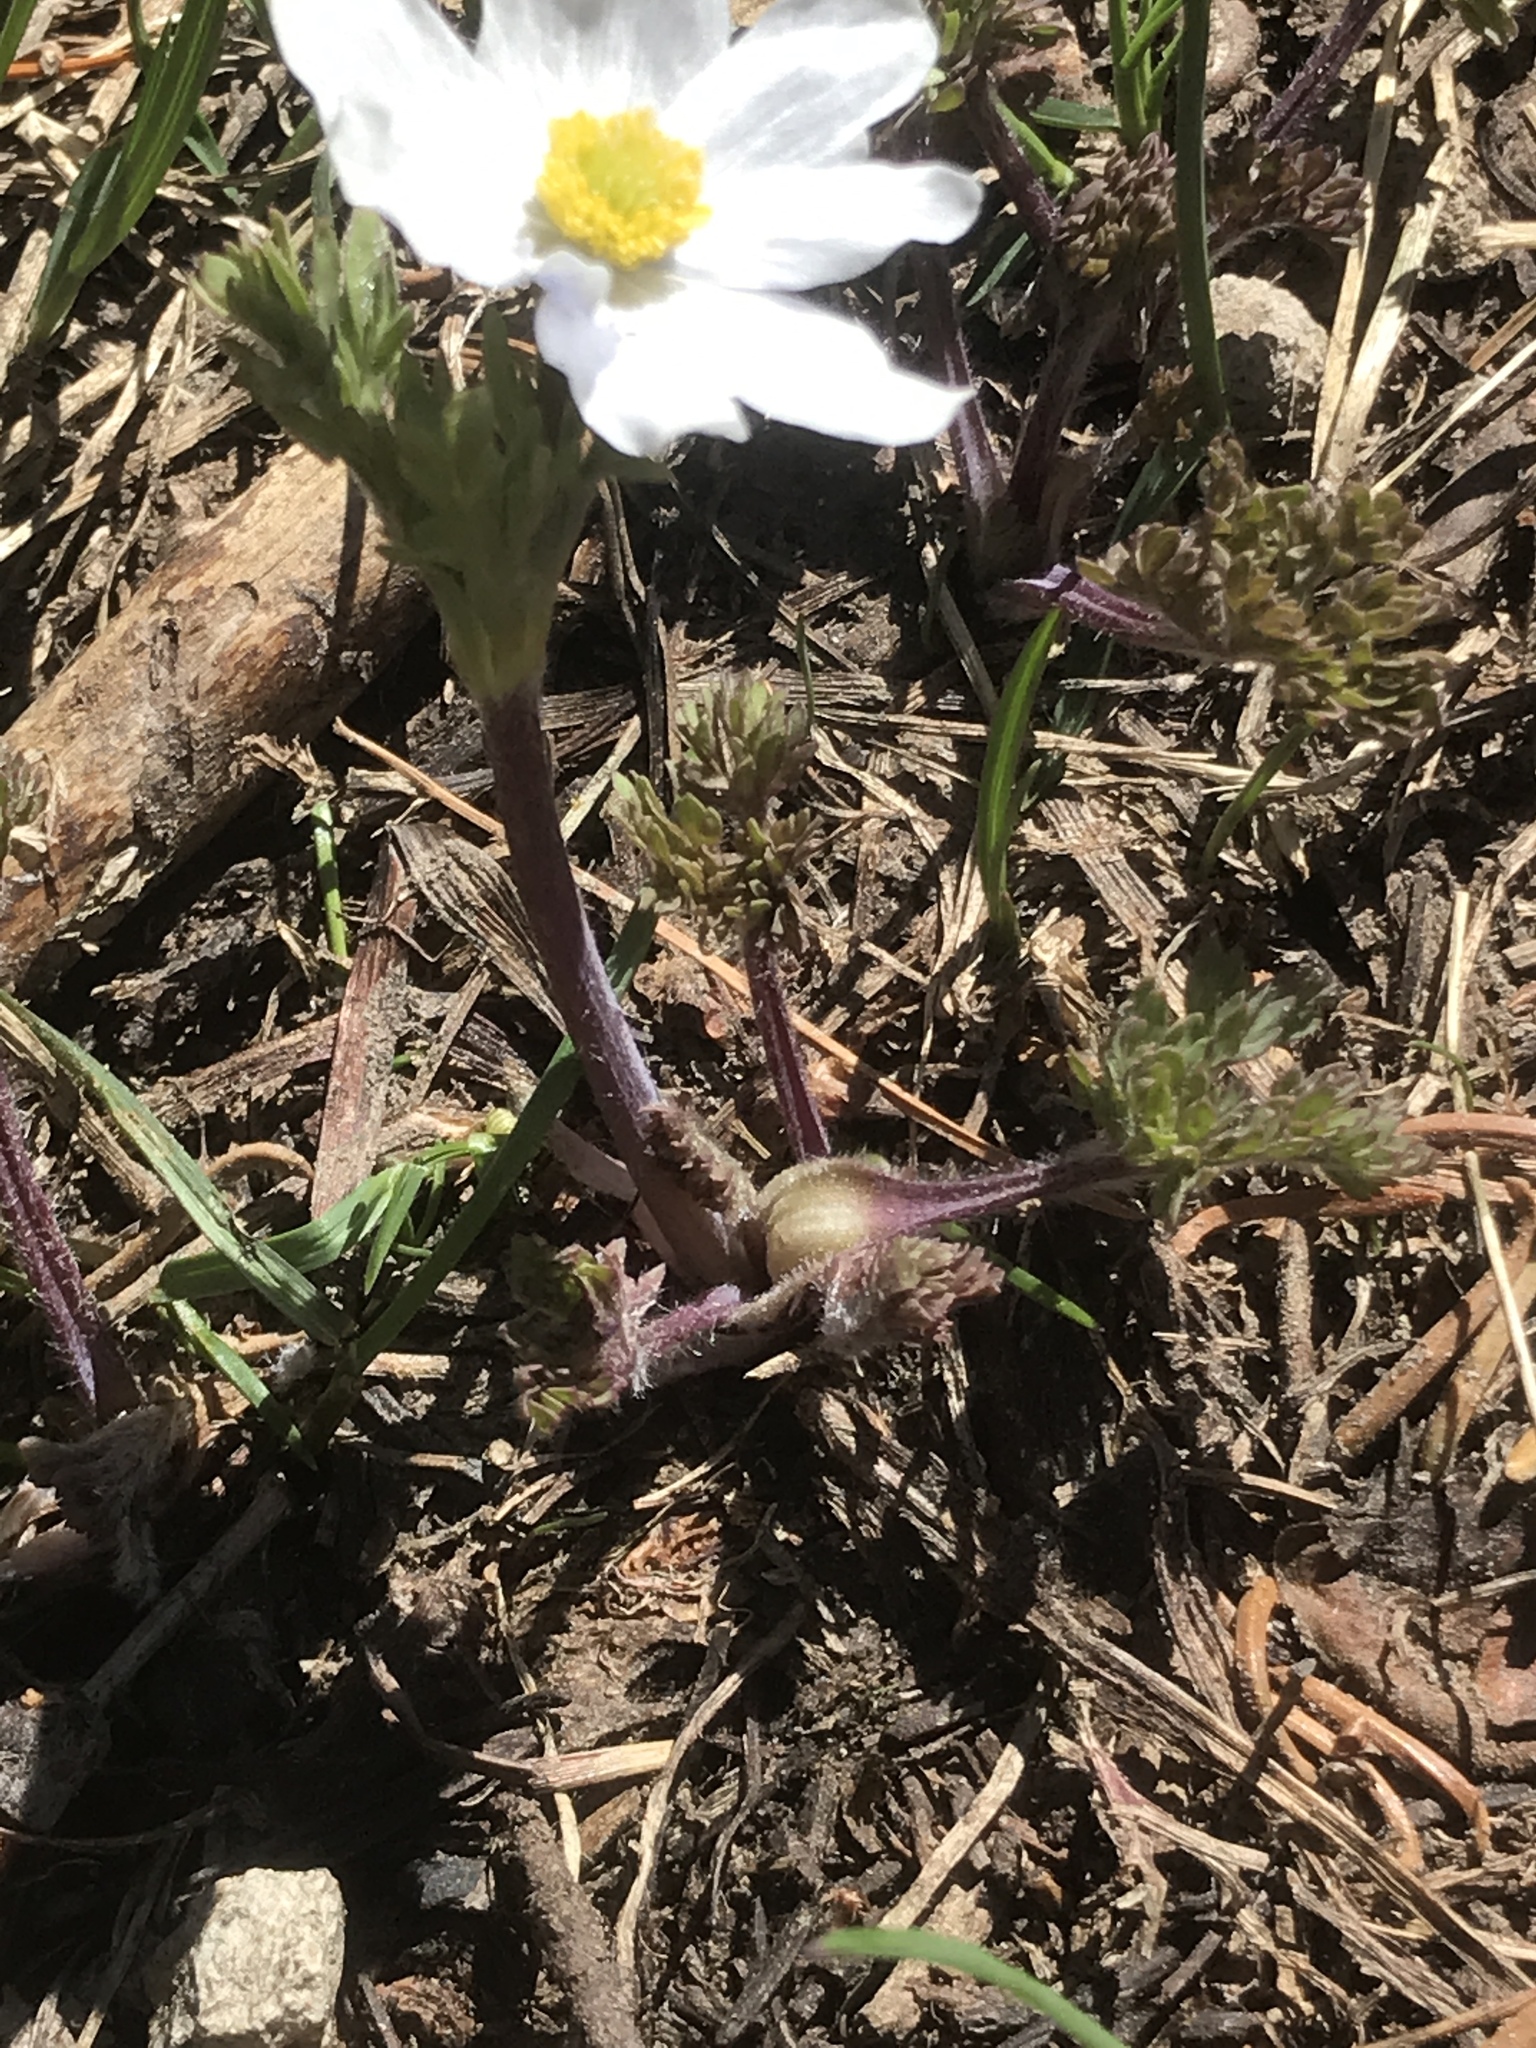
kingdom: Plantae
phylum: Tracheophyta
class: Magnoliopsida
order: Ranunculales
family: Ranunculaceae
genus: Anemone
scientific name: Anemone drummondii
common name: Drummond's anemone
